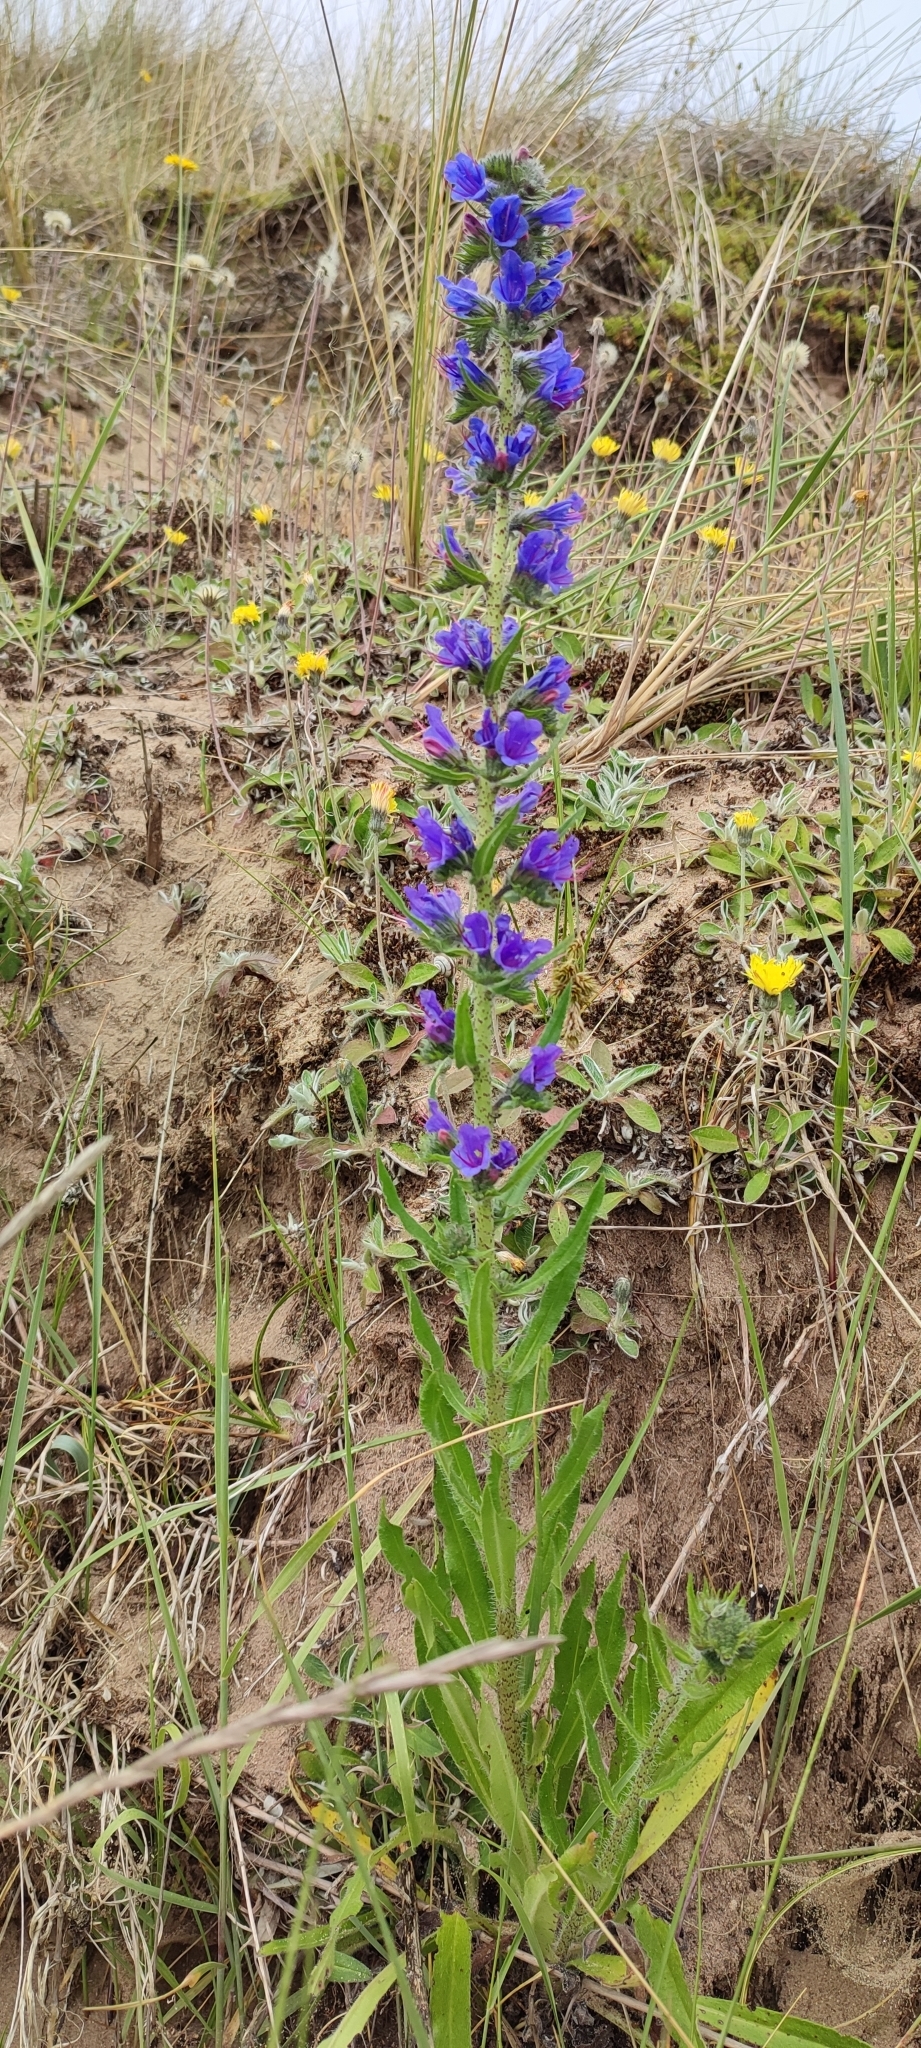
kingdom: Plantae
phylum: Tracheophyta
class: Magnoliopsida
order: Boraginales
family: Boraginaceae
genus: Echium
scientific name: Echium vulgare
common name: Common viper's bugloss
